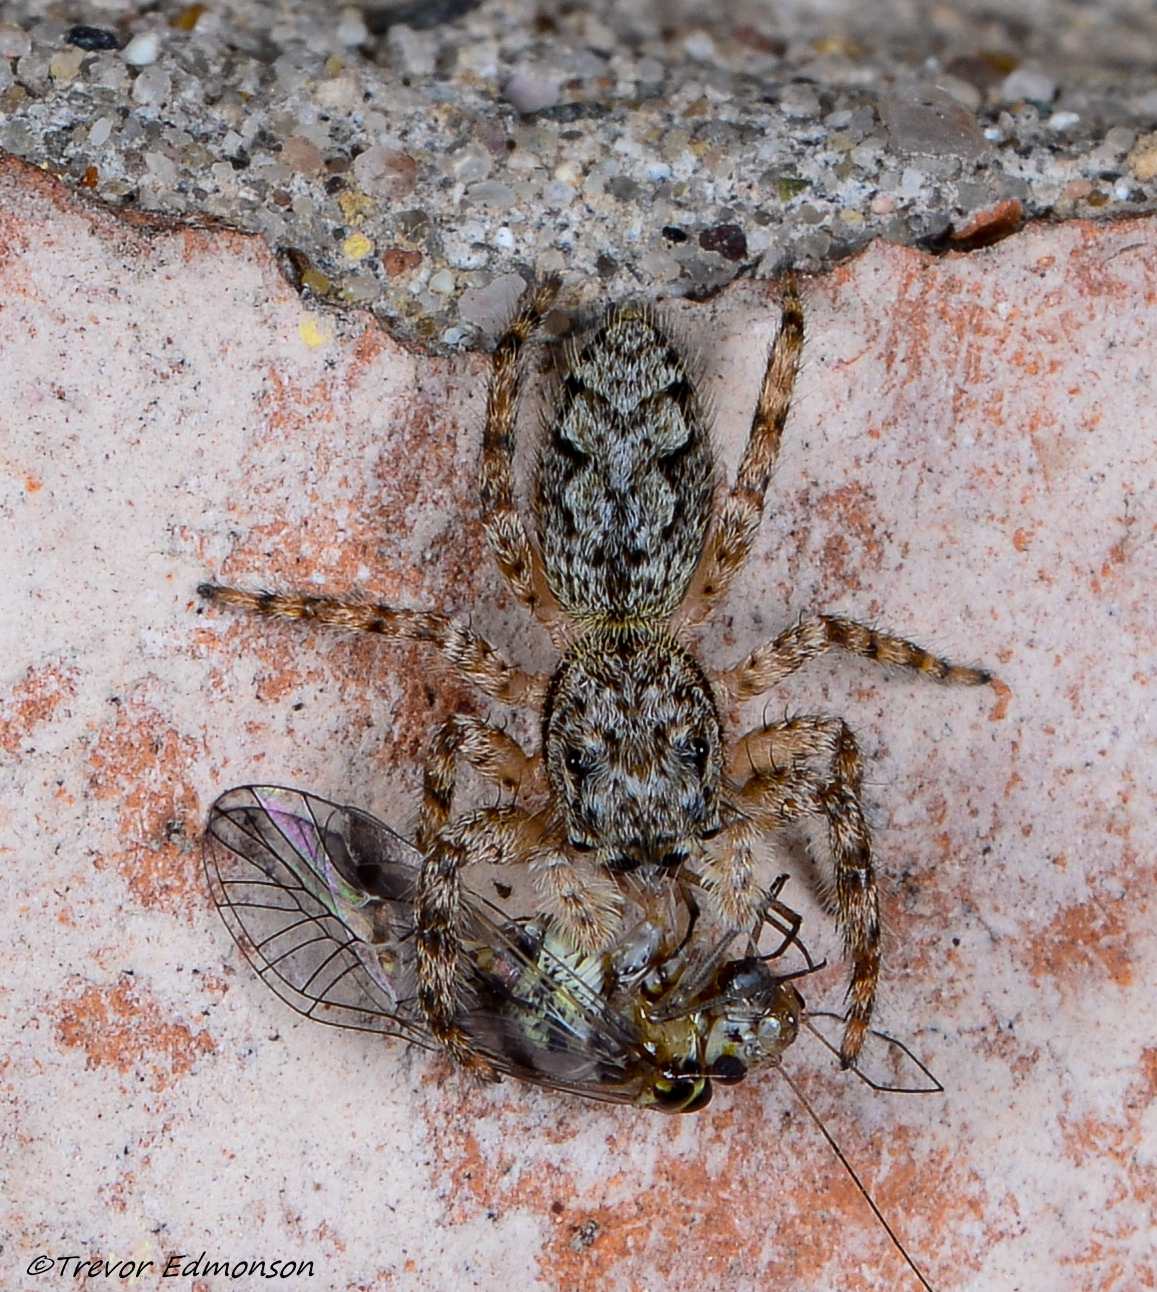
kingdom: Animalia
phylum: Arthropoda
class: Arachnida
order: Araneae
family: Salticidae
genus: Platycryptus
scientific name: Platycryptus undatus
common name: Tan jumping spider
